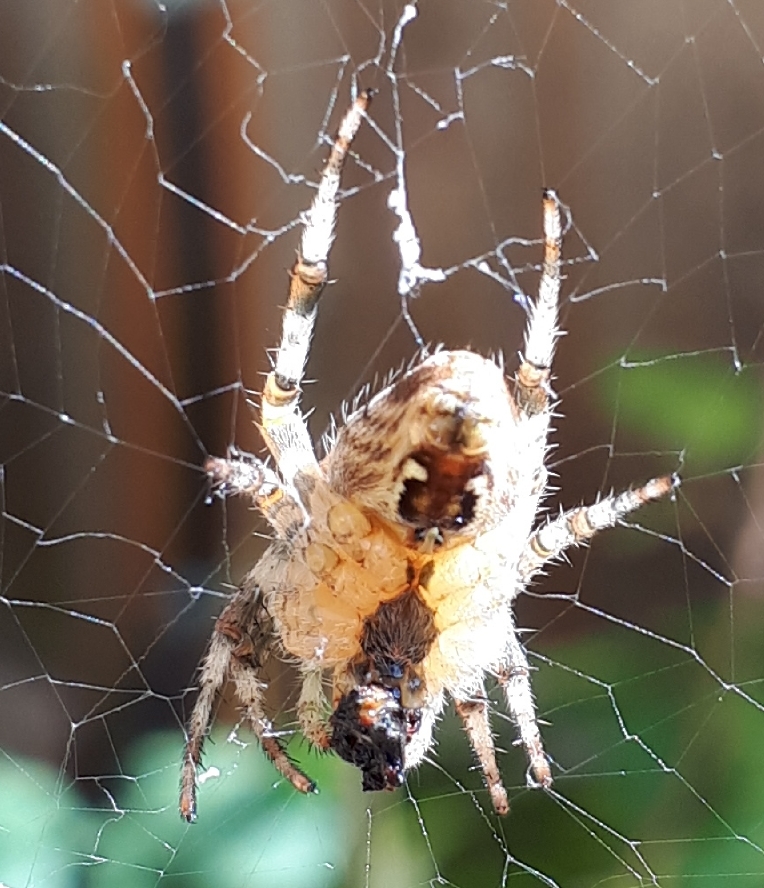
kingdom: Animalia
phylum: Arthropoda
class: Arachnida
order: Araneae
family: Araneidae
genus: Araneus
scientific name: Araneus diadematus
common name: Cross orbweaver
